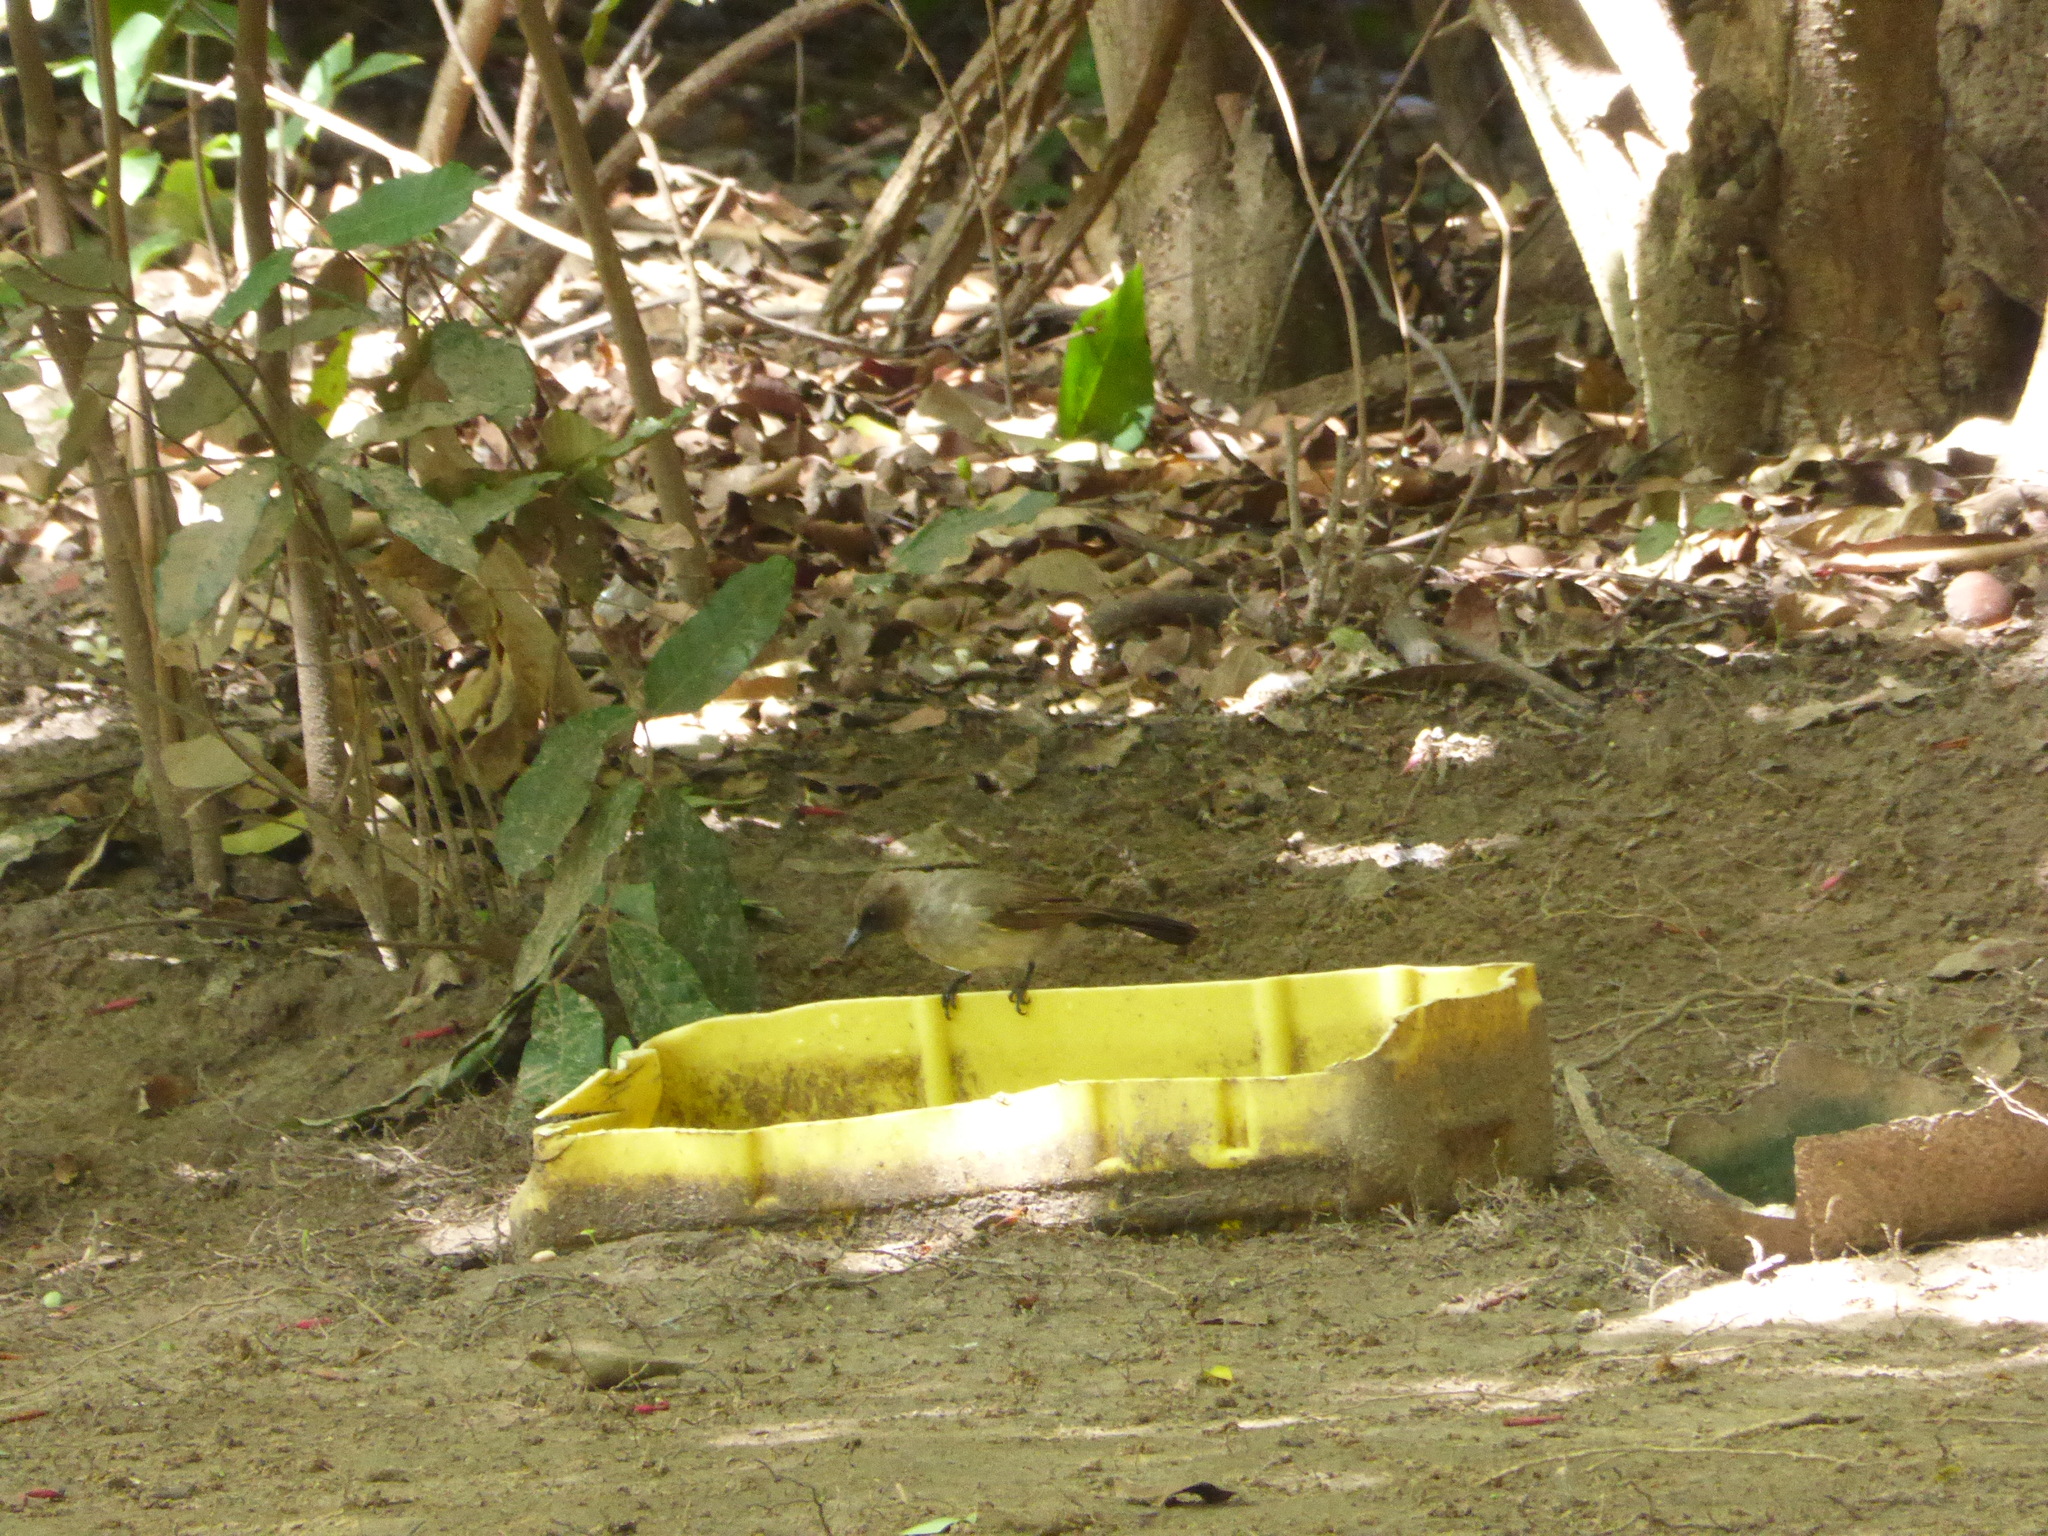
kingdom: Animalia
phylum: Chordata
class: Aves
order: Passeriformes
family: Pycnonotidae
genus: Pycnonotus
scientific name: Pycnonotus barbatus
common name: Common bulbul
